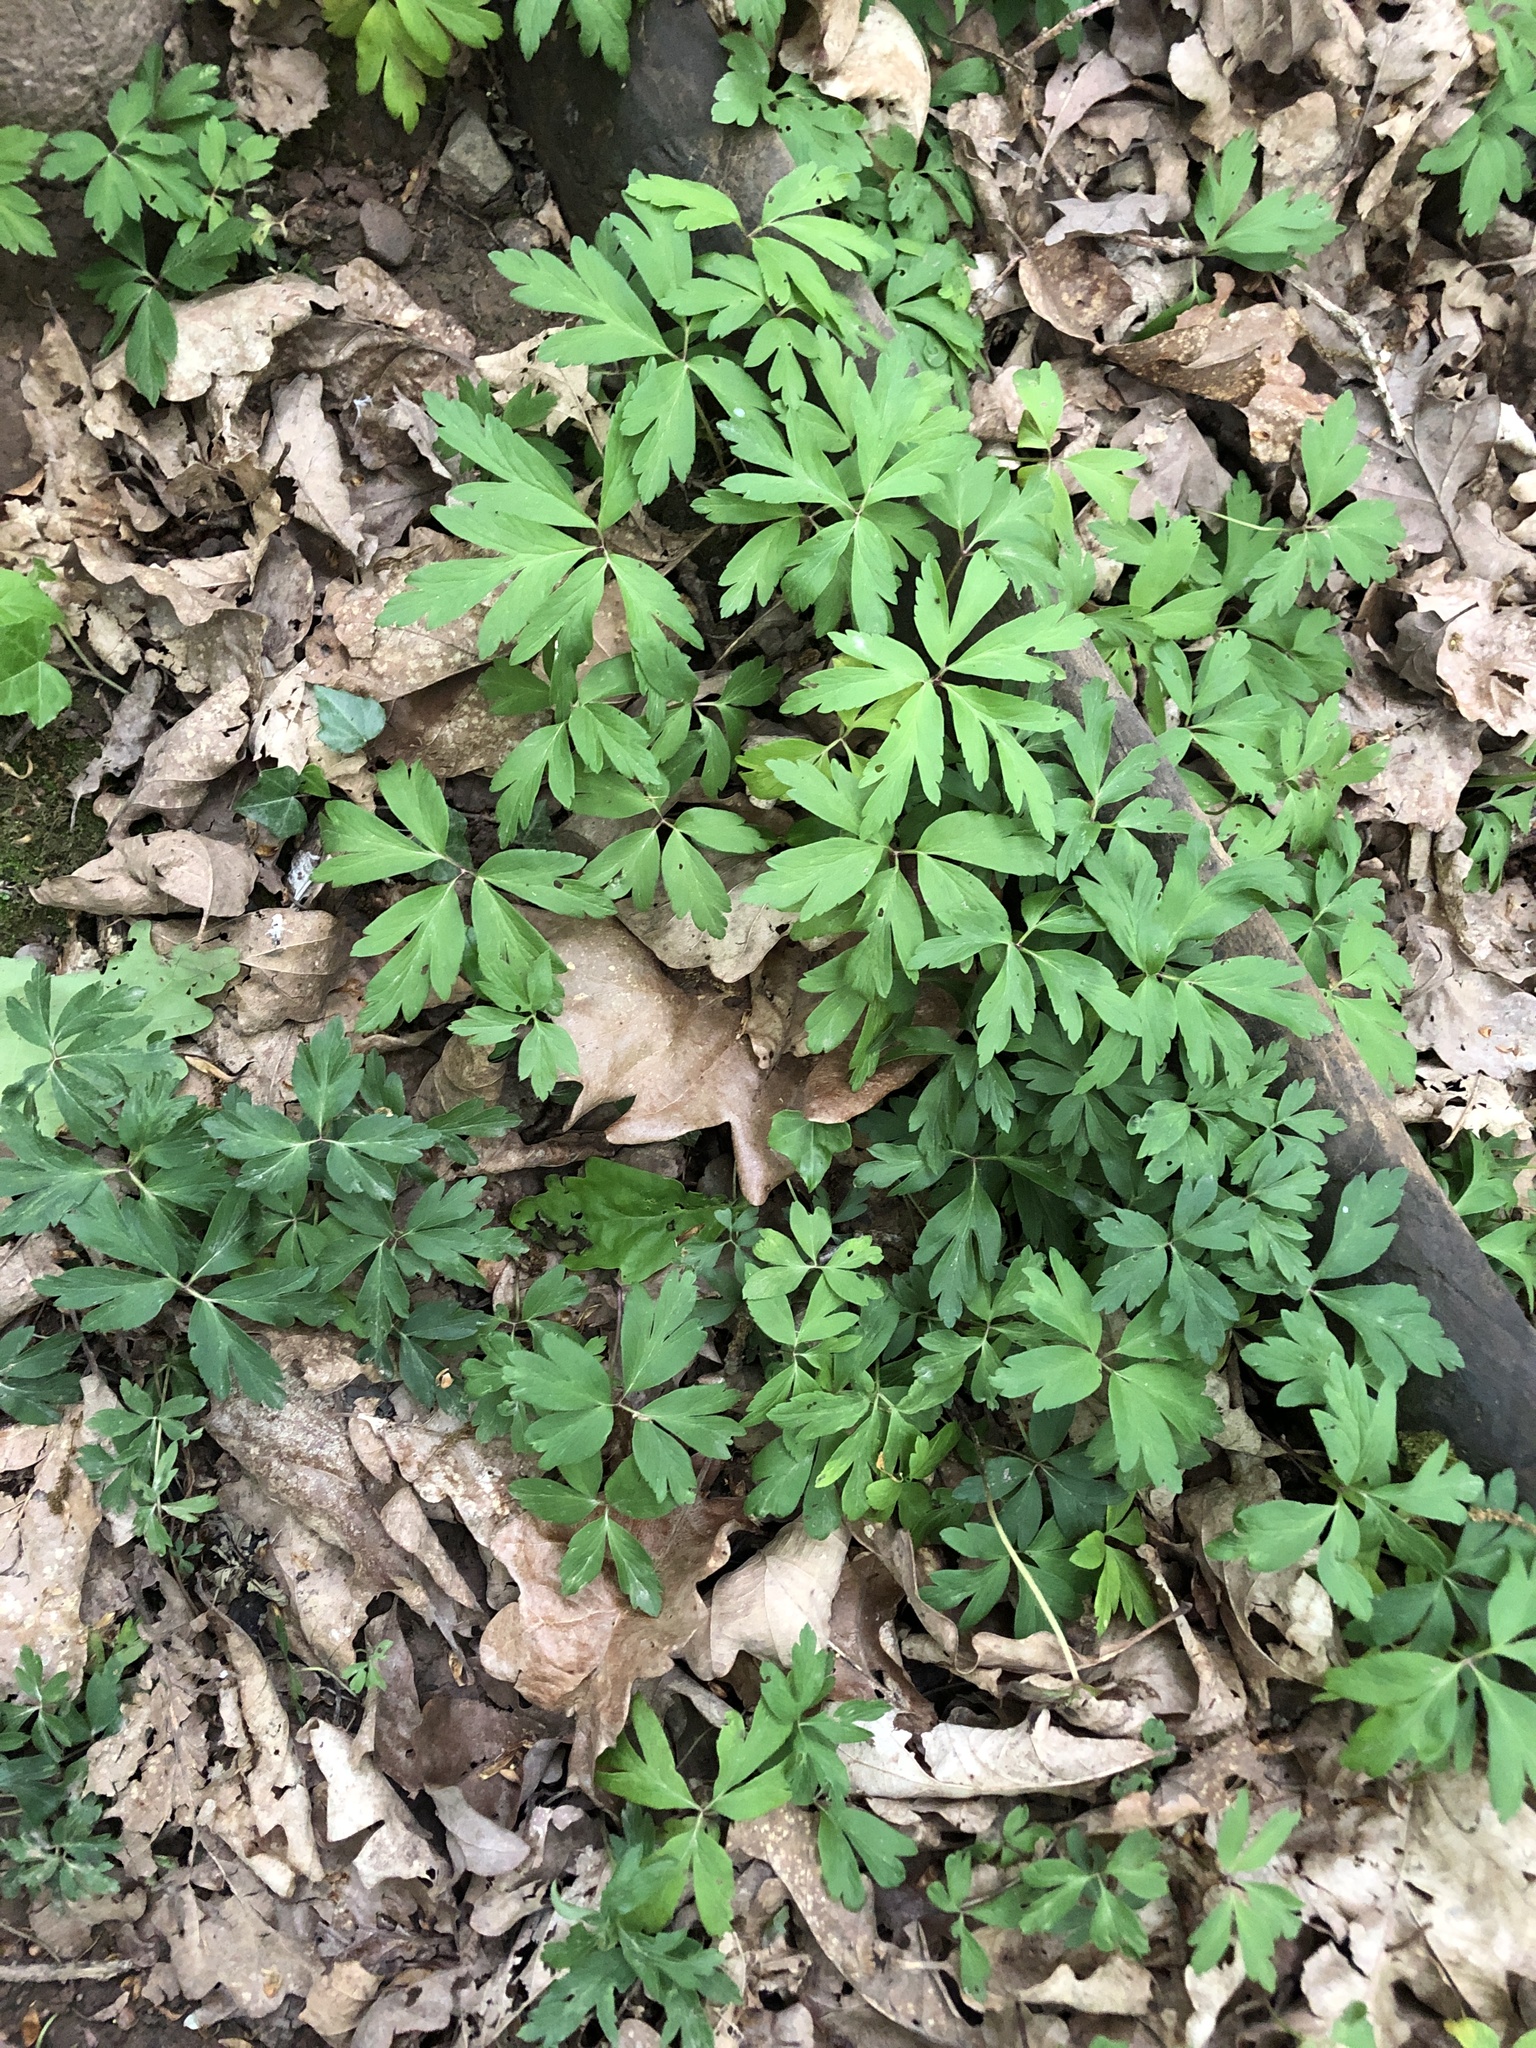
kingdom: Plantae
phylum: Tracheophyta
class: Magnoliopsida
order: Ranunculales
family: Ranunculaceae
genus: Anemone
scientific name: Anemone nemorosa
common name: Wood anemone
